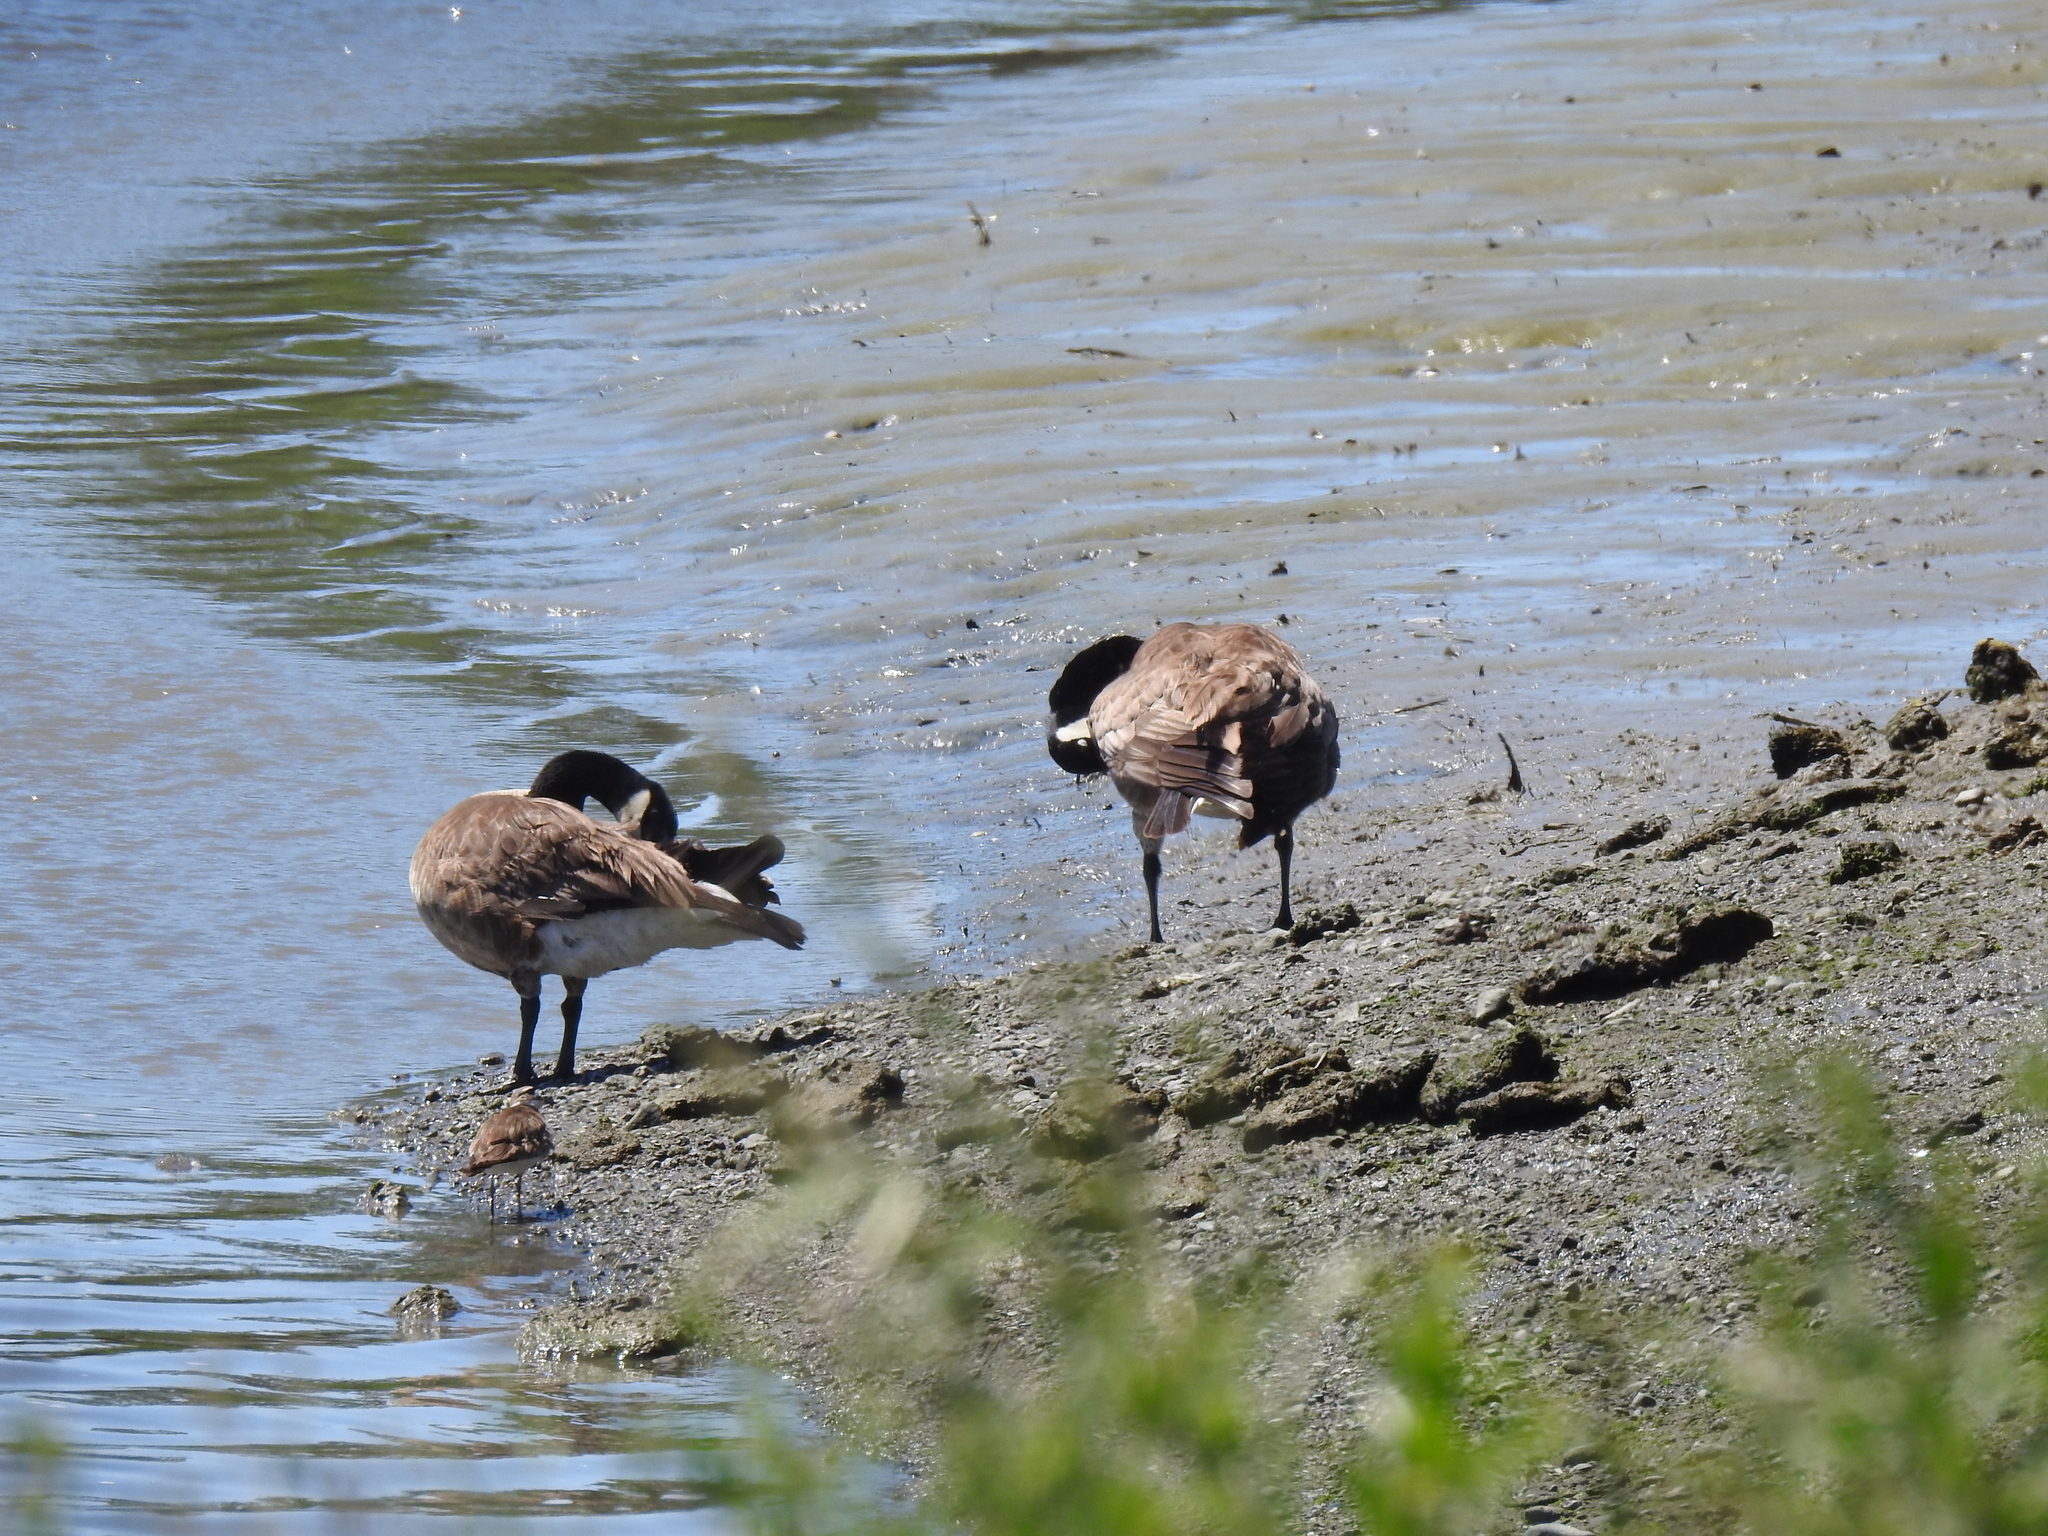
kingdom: Animalia
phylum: Chordata
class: Aves
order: Anseriformes
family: Anatidae
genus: Branta
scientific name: Branta canadensis
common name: Canada goose
